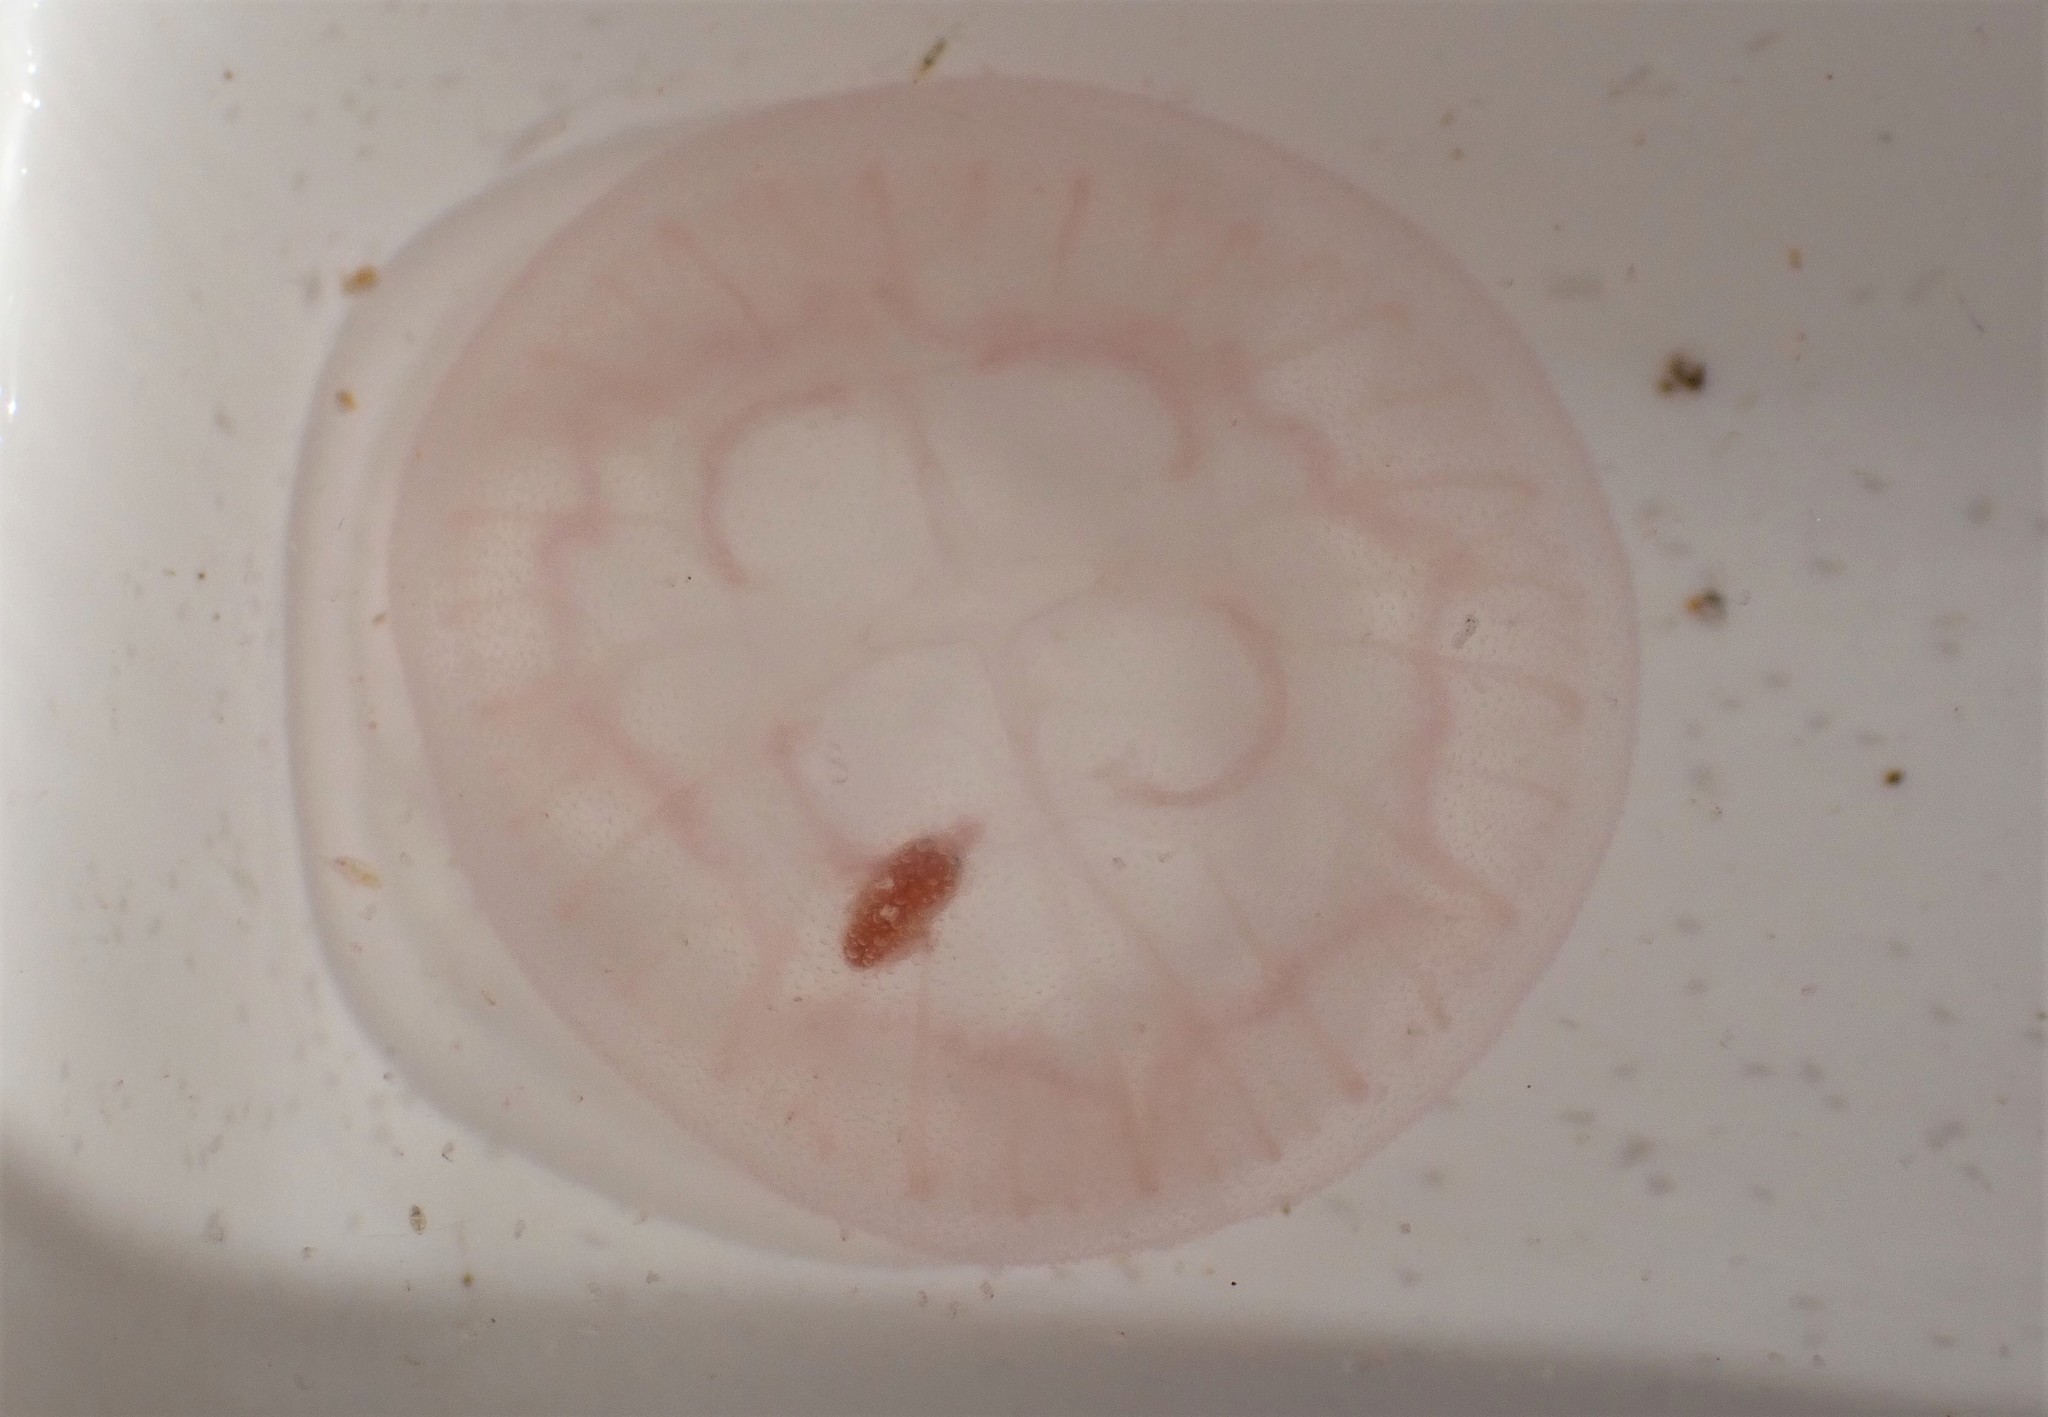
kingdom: Animalia
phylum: Cnidaria
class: Scyphozoa
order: Semaeostomeae
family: Ulmaridae
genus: Aurelia
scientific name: Aurelia aurita
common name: Moon jellyfish
